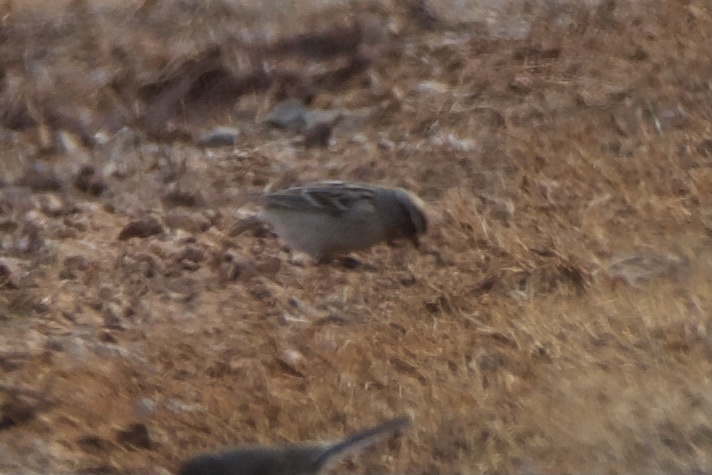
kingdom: Animalia
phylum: Chordata
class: Aves
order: Passeriformes
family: Passerellidae
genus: Spizelloides
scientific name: Spizelloides arborea
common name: American tree sparrow
